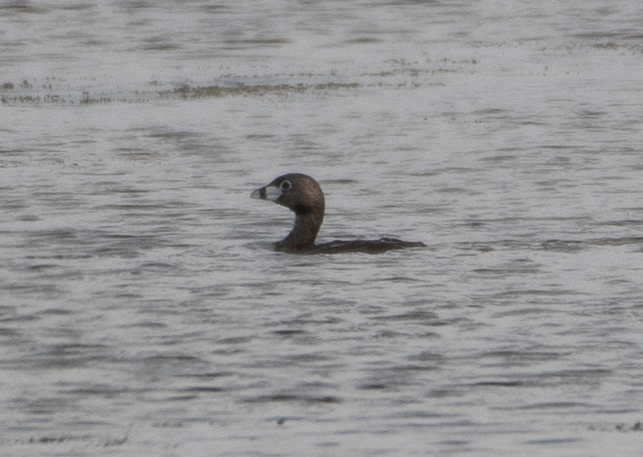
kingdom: Animalia
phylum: Chordata
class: Aves
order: Podicipediformes
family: Podicipedidae
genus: Podilymbus
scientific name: Podilymbus podiceps
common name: Pied-billed grebe
